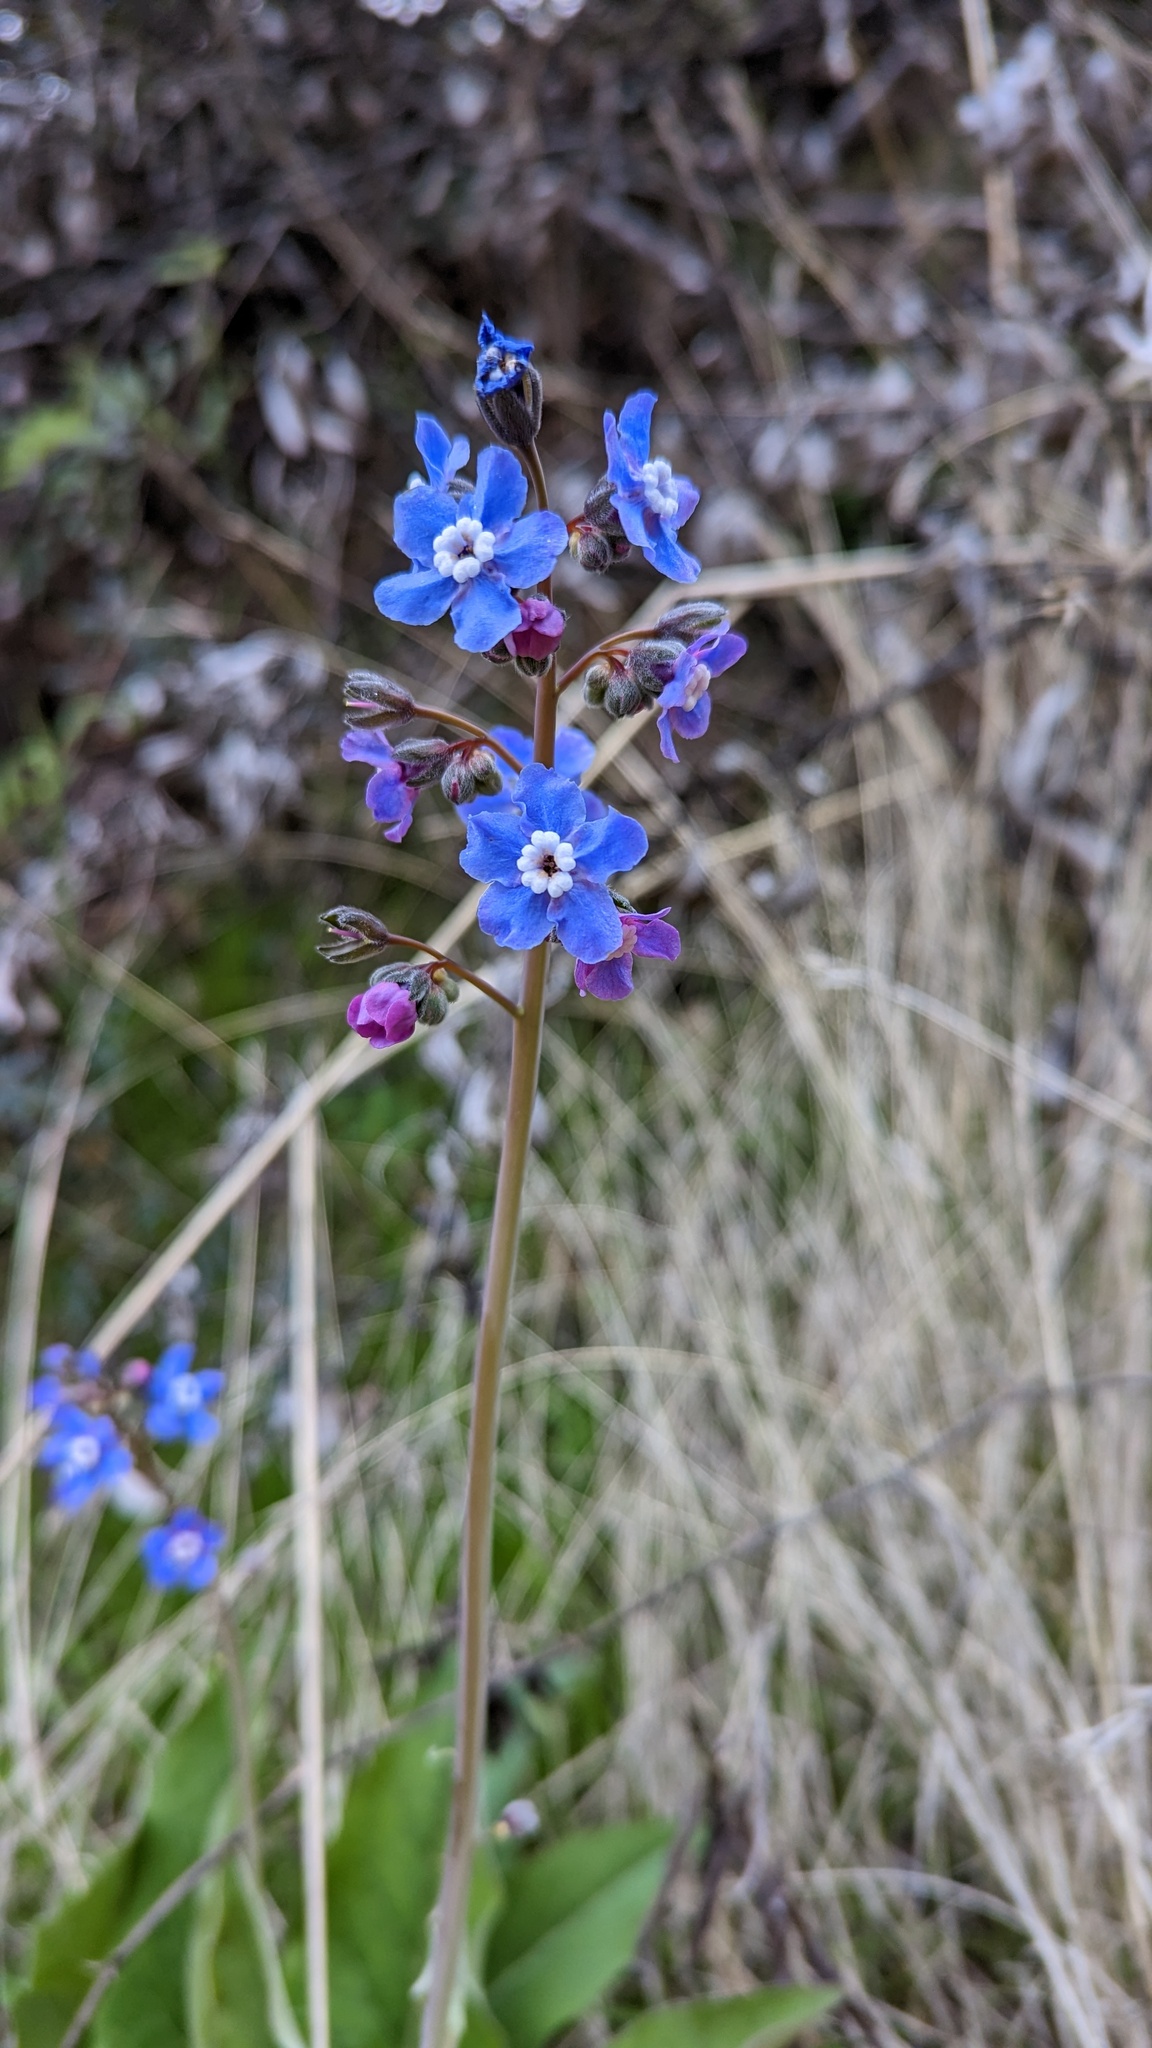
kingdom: Plantae
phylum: Tracheophyta
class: Magnoliopsida
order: Boraginales
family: Boraginaceae
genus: Adelinia
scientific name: Adelinia grande
